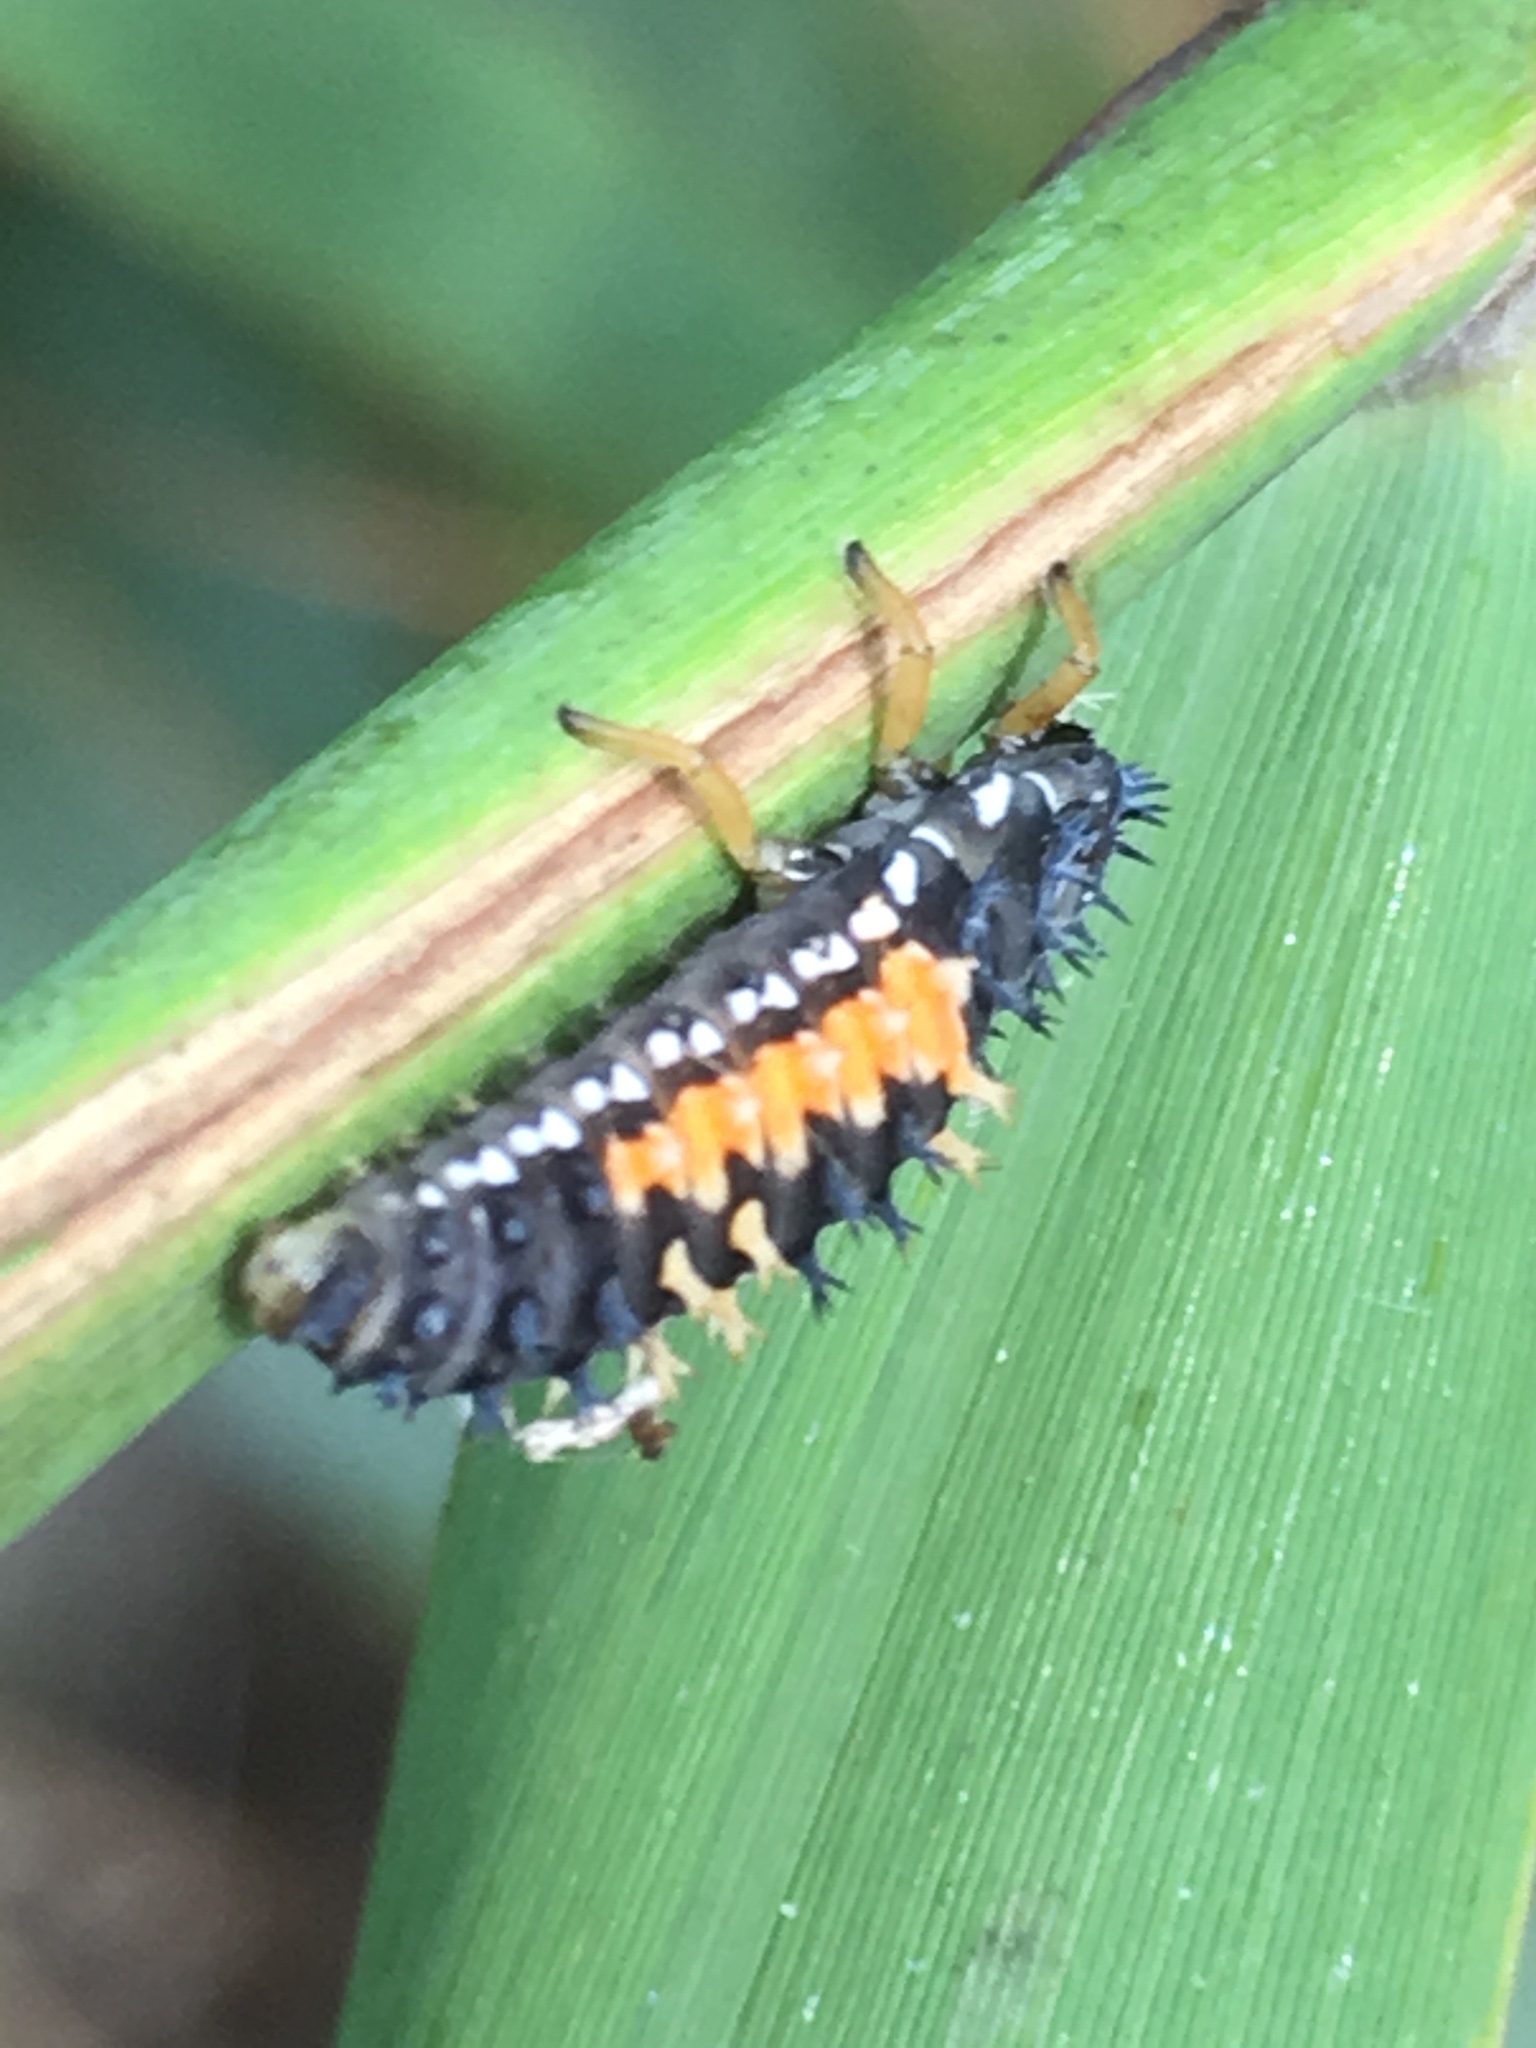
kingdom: Animalia
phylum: Arthropoda
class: Insecta
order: Coleoptera
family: Coccinellidae
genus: Harmonia
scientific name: Harmonia axyridis
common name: Harlequin ladybird
